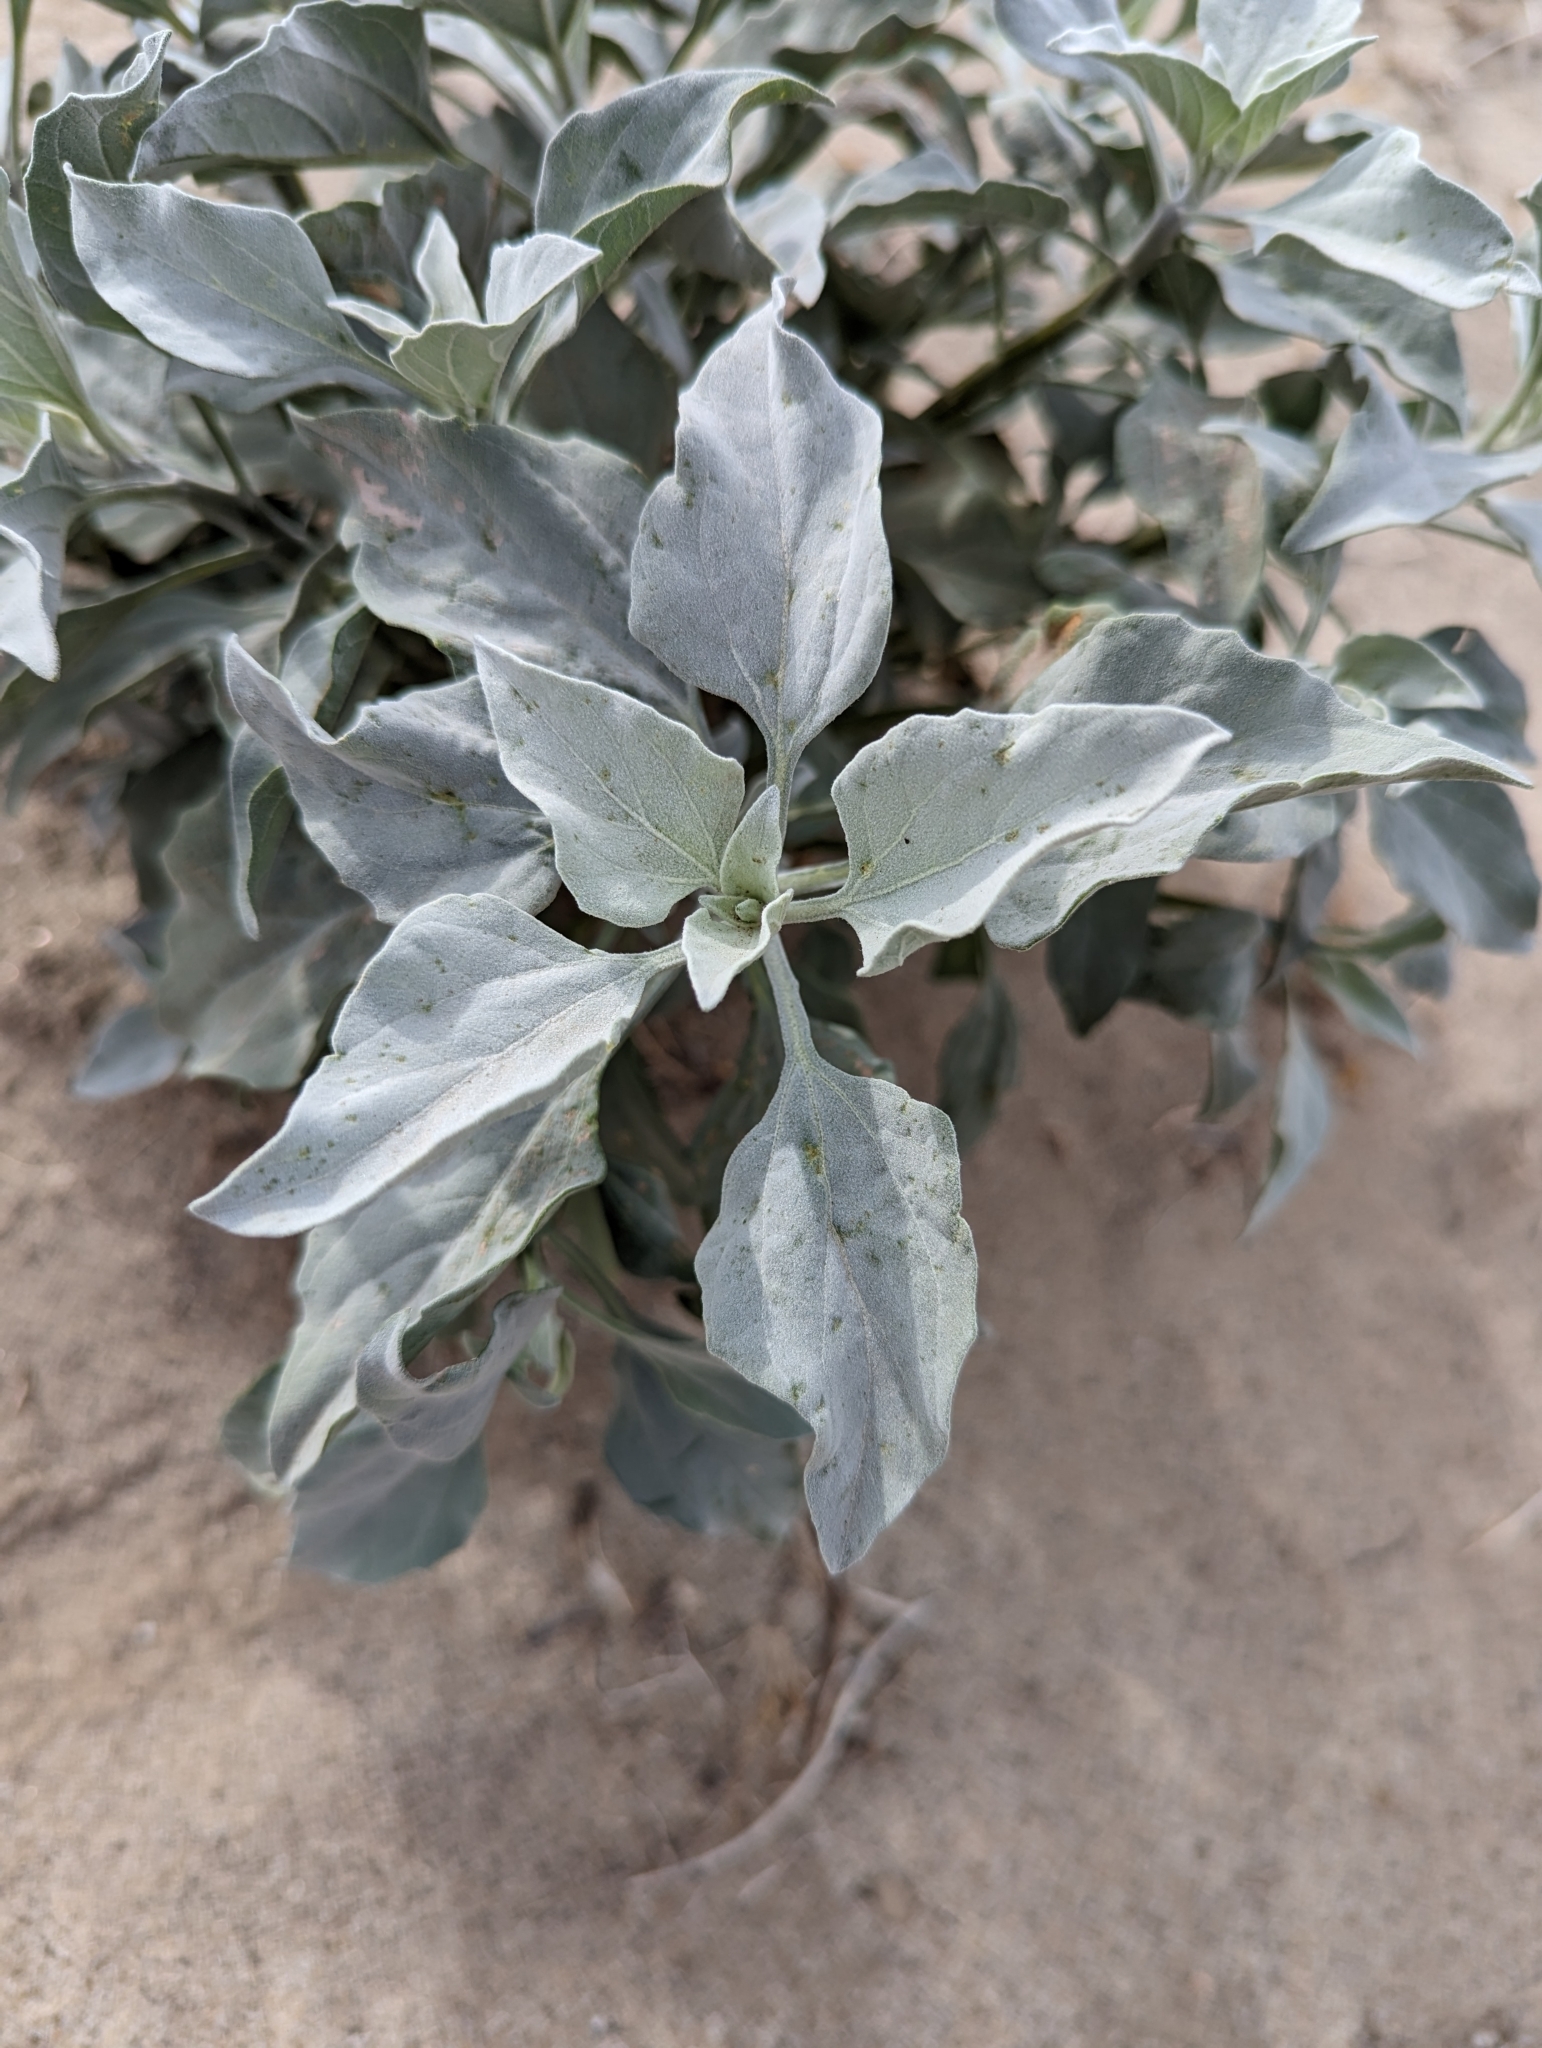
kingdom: Plantae
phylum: Tracheophyta
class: Magnoliopsida
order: Asterales
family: Asteraceae
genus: Encelia
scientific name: Encelia farinosa
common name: Brittlebush
